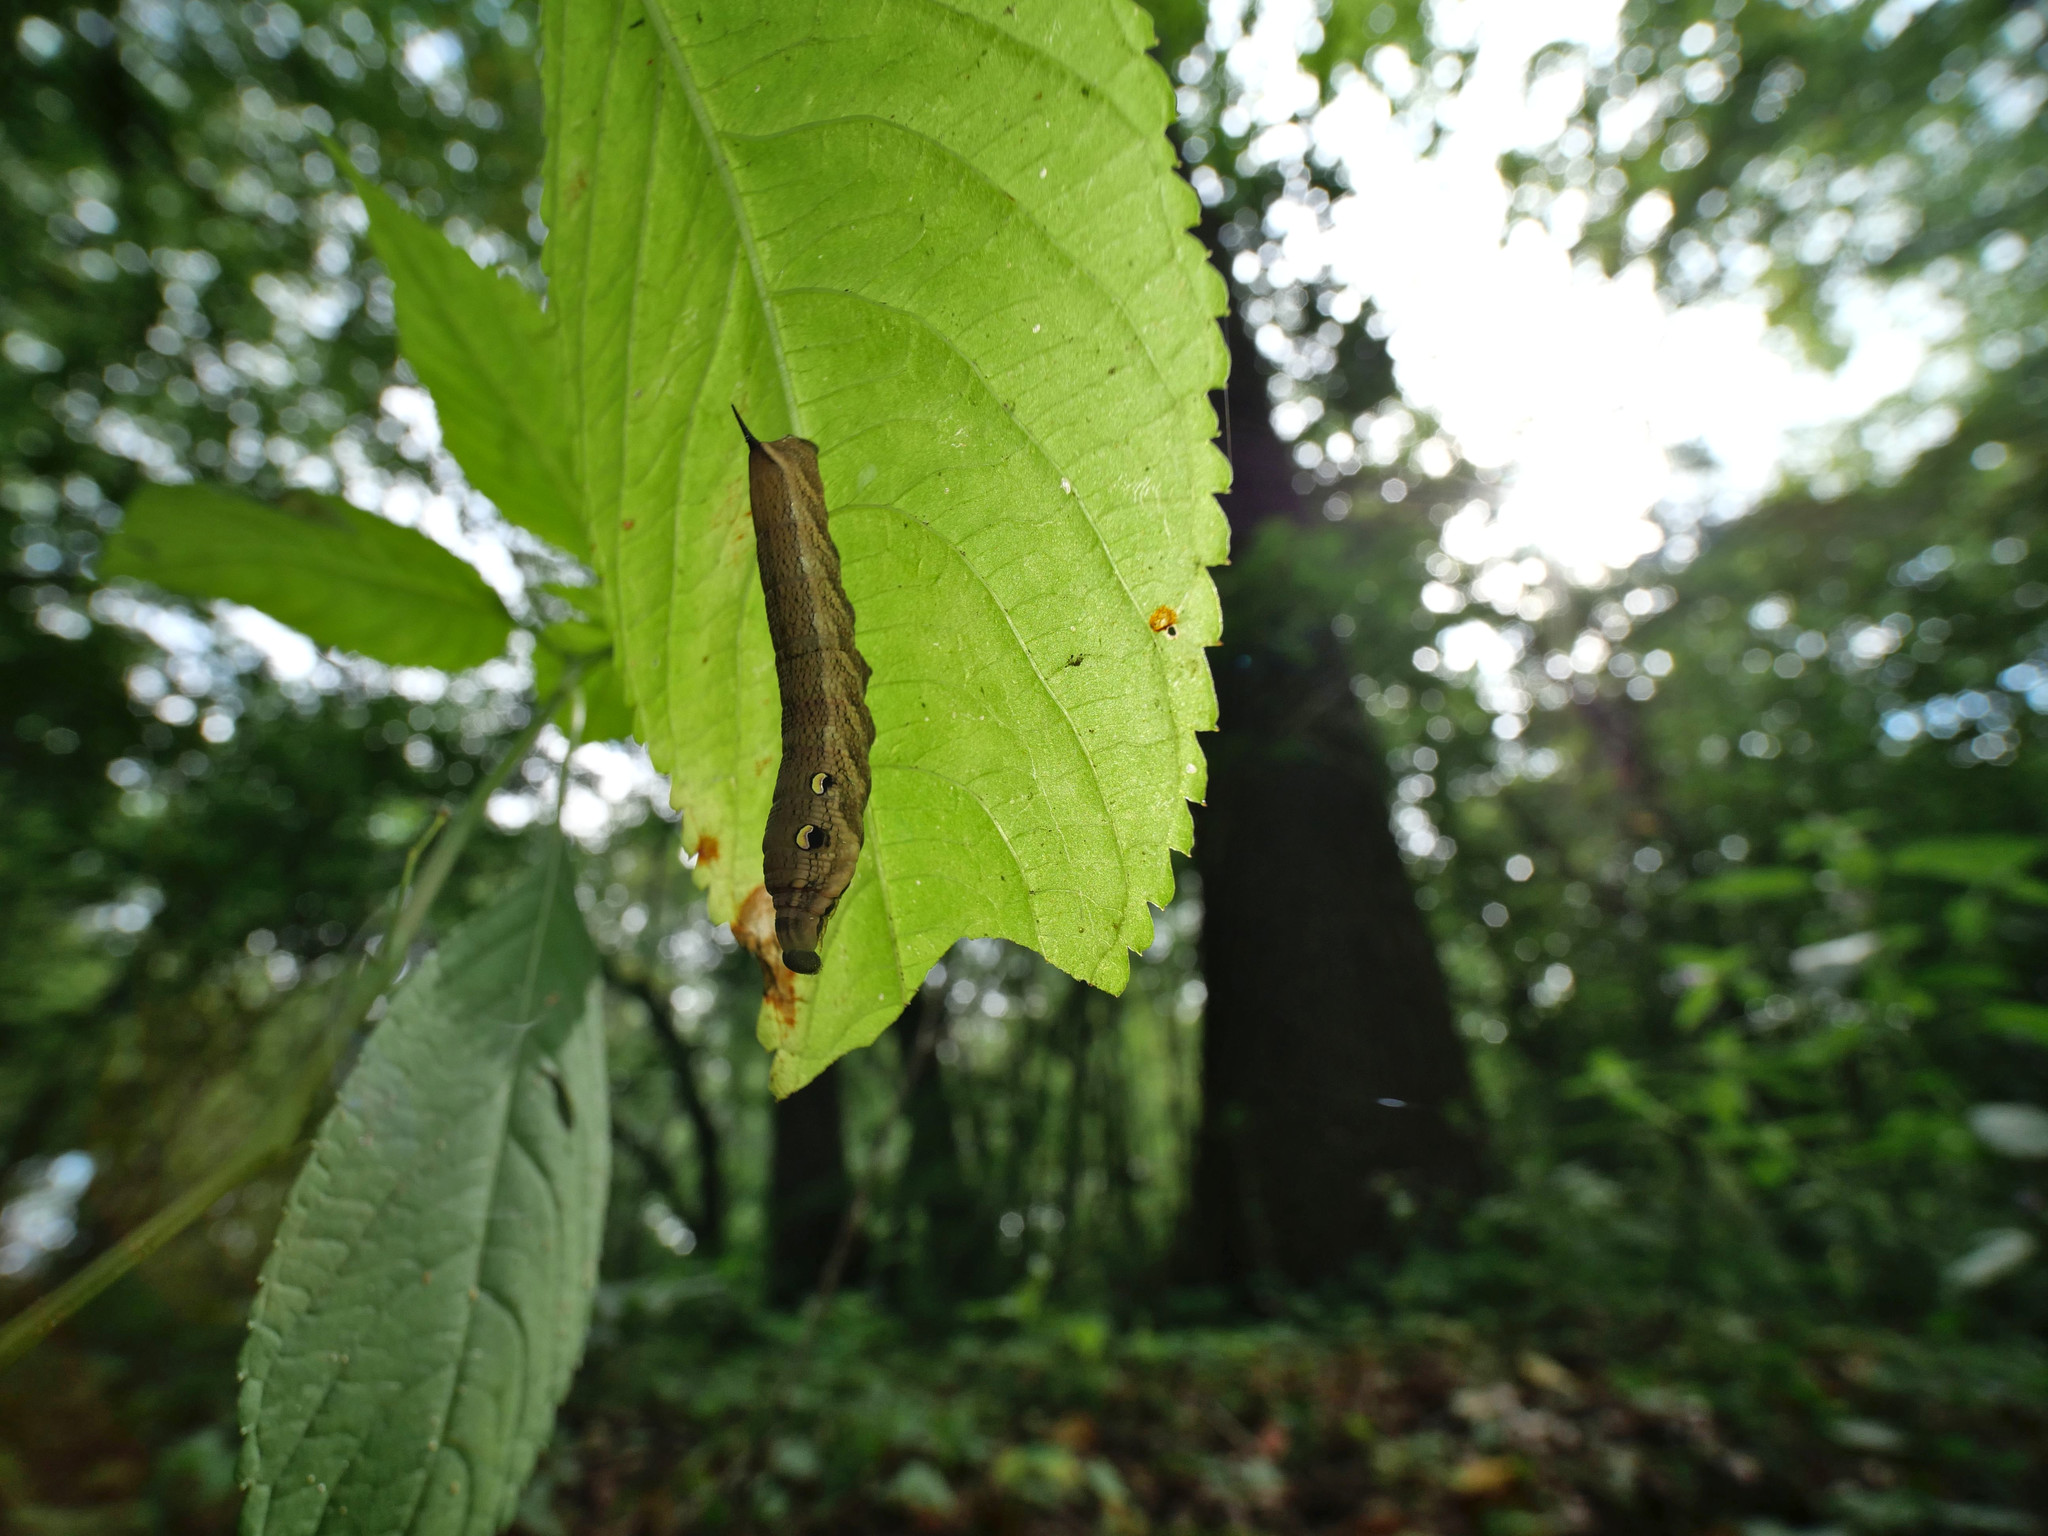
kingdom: Animalia
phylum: Arthropoda
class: Insecta
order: Lepidoptera
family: Sphingidae
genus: Deilephila
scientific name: Deilephila elpenor
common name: Elephant hawk-moth
